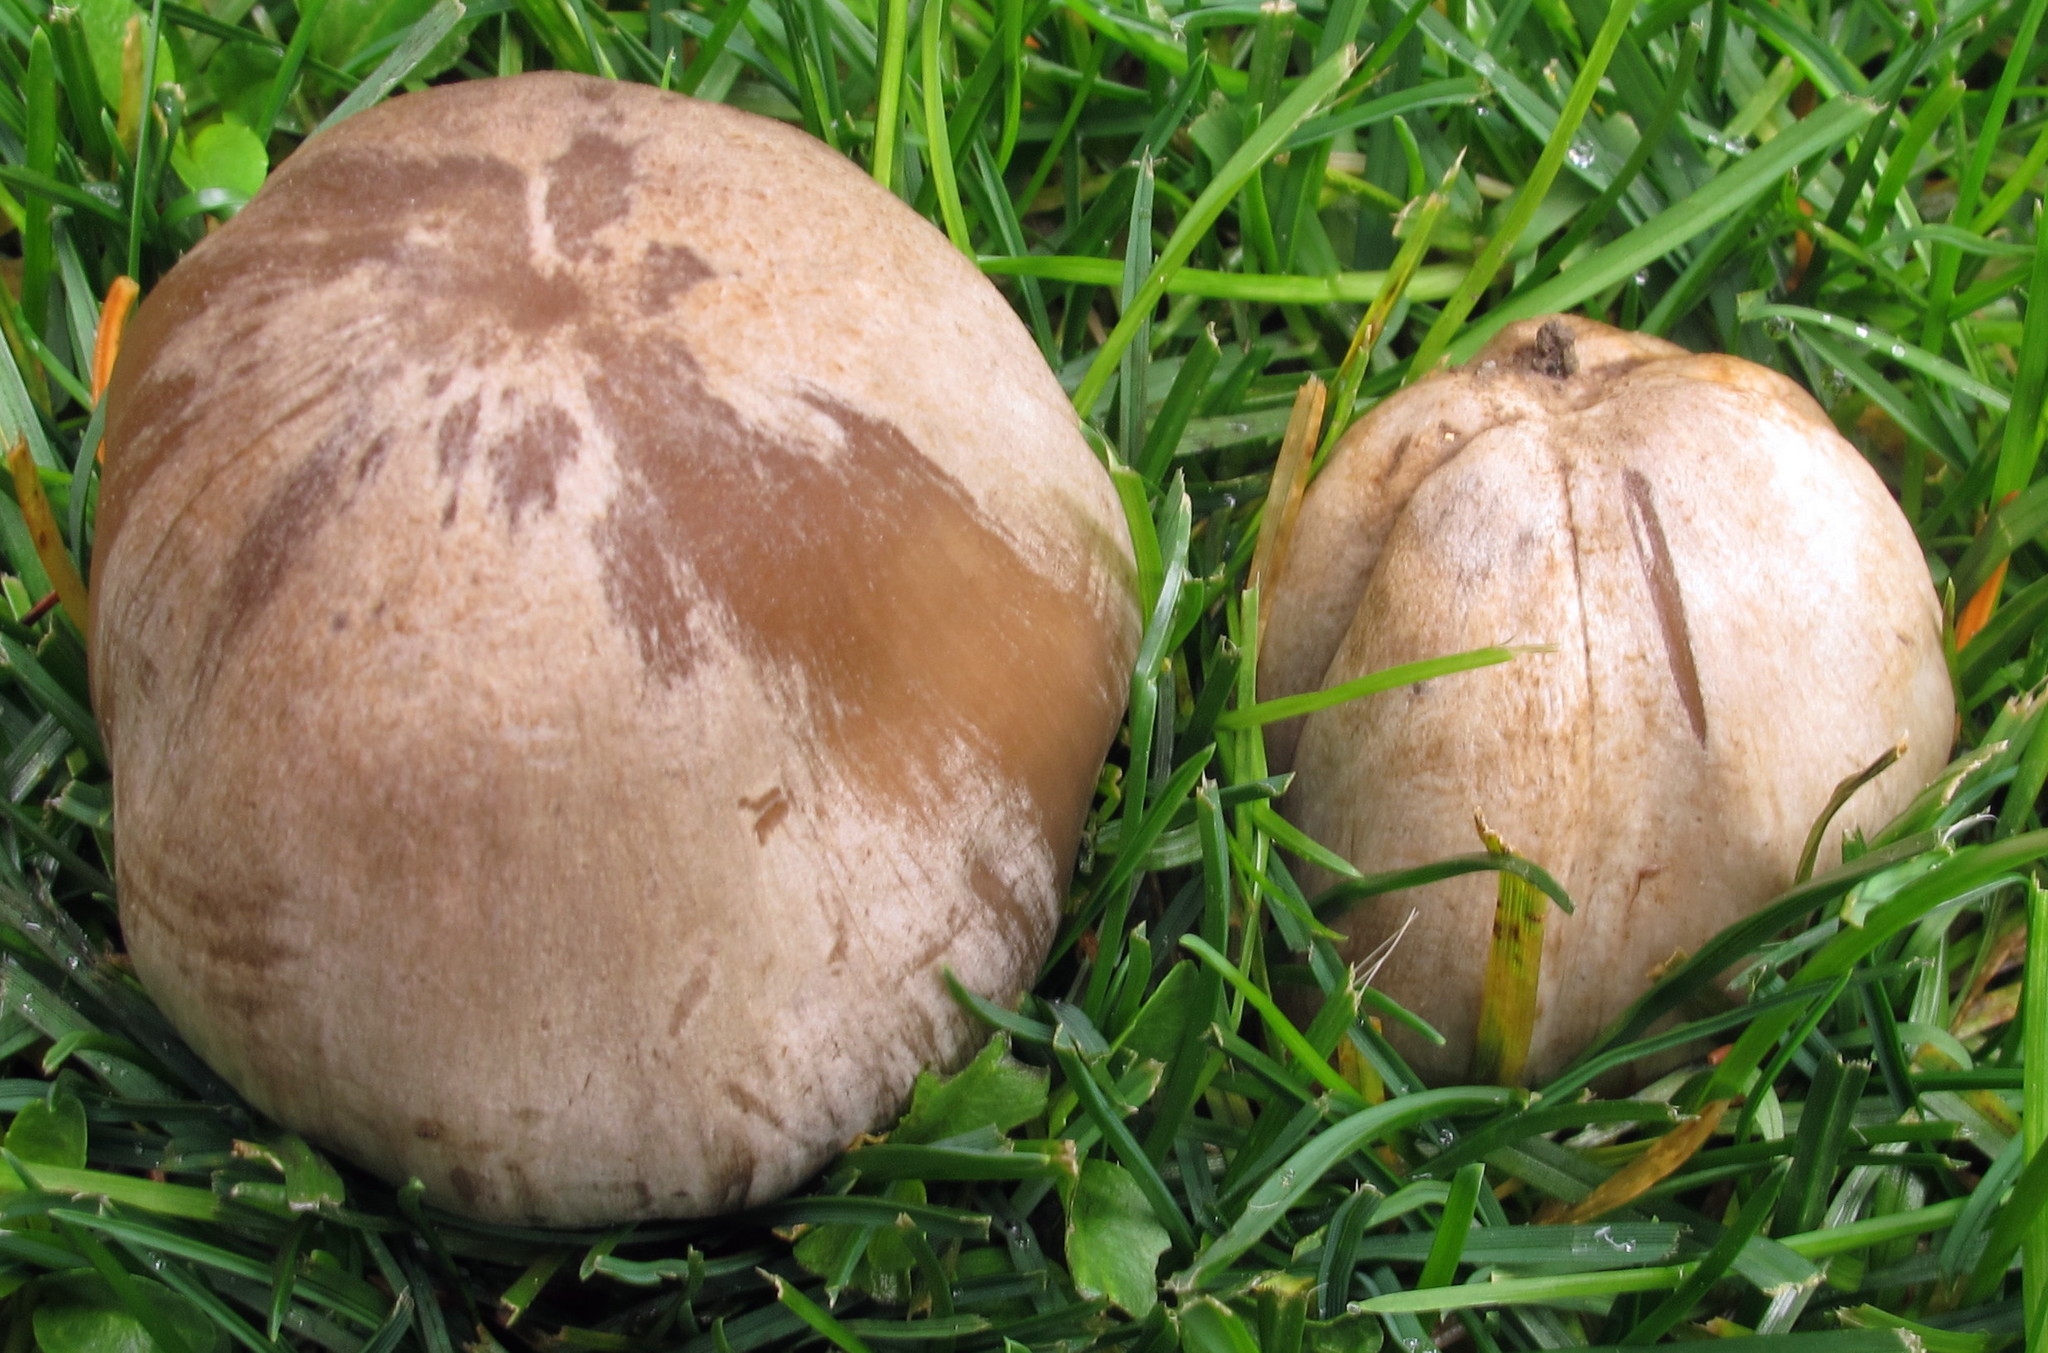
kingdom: Fungi
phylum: Basidiomycota
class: Agaricomycetes
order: Agaricales
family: Psathyrellaceae
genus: Coprinopsis
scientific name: Coprinopsis romagnesiana
